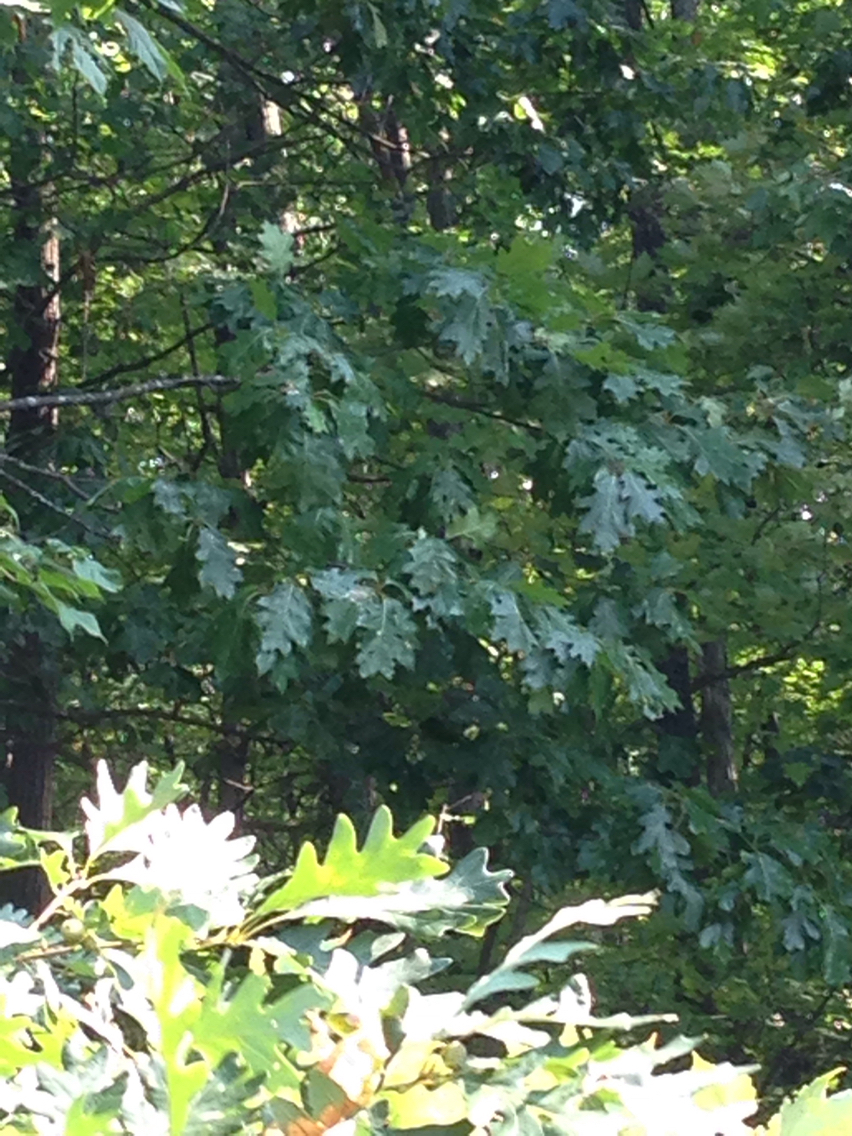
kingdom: Plantae
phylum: Tracheophyta
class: Magnoliopsida
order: Fagales
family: Fagaceae
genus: Quercus
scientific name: Quercus rubra
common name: Red oak
